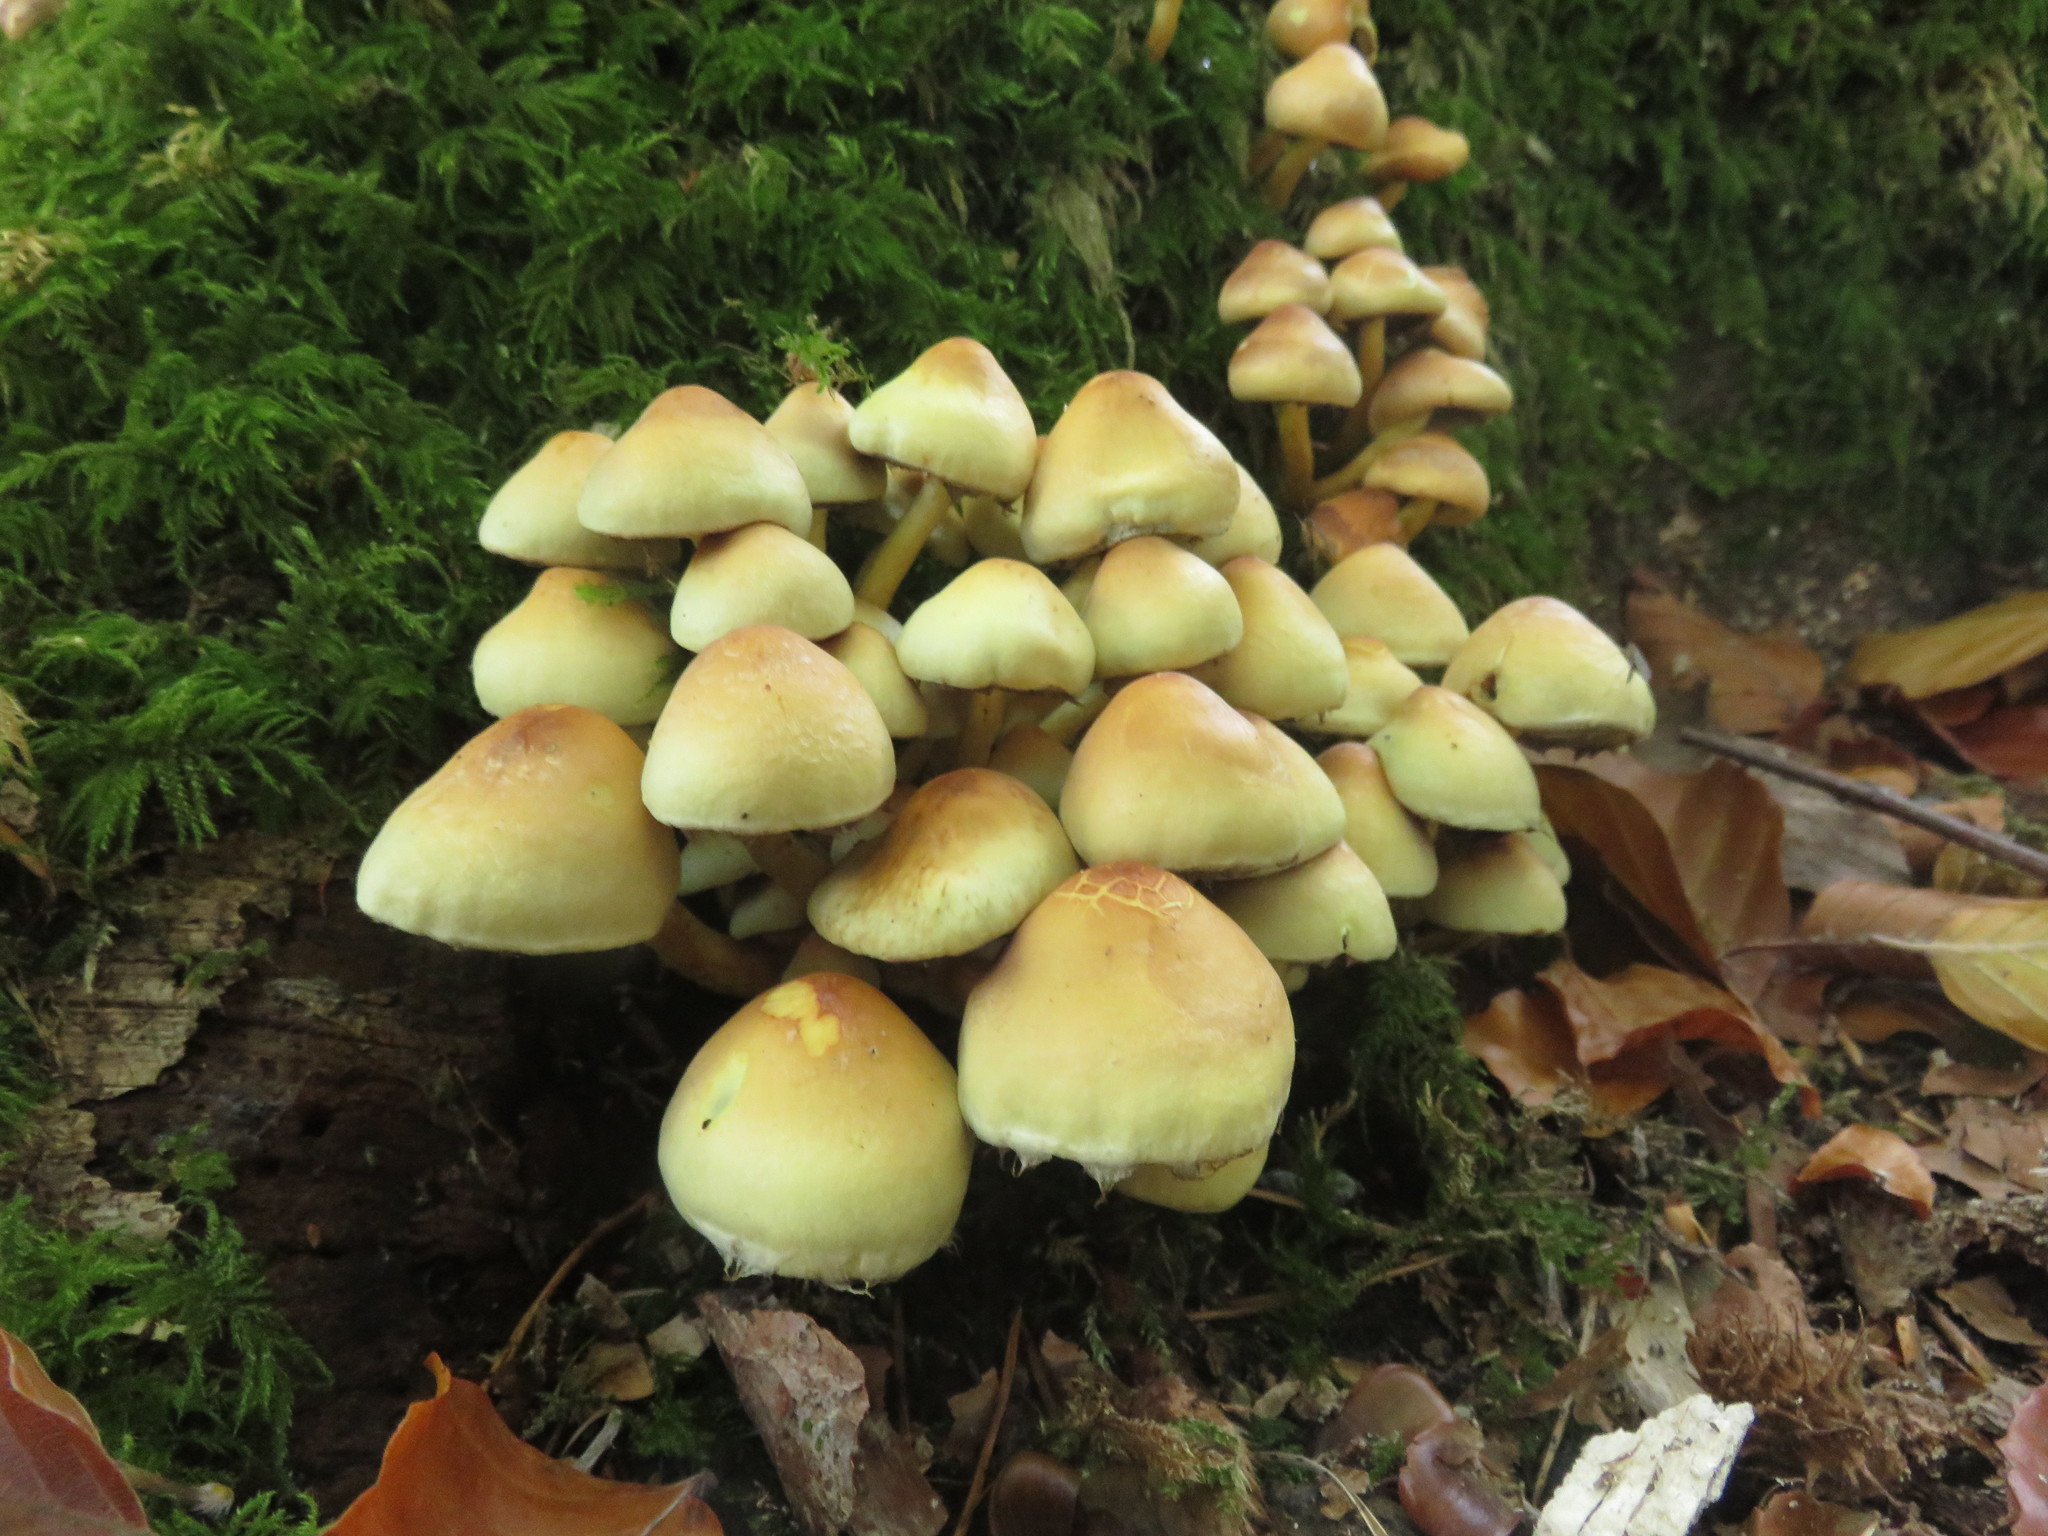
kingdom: Fungi
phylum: Basidiomycota
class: Agaricomycetes
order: Agaricales
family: Strophariaceae
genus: Hypholoma
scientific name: Hypholoma fasciculare
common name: Sulphur tuft
